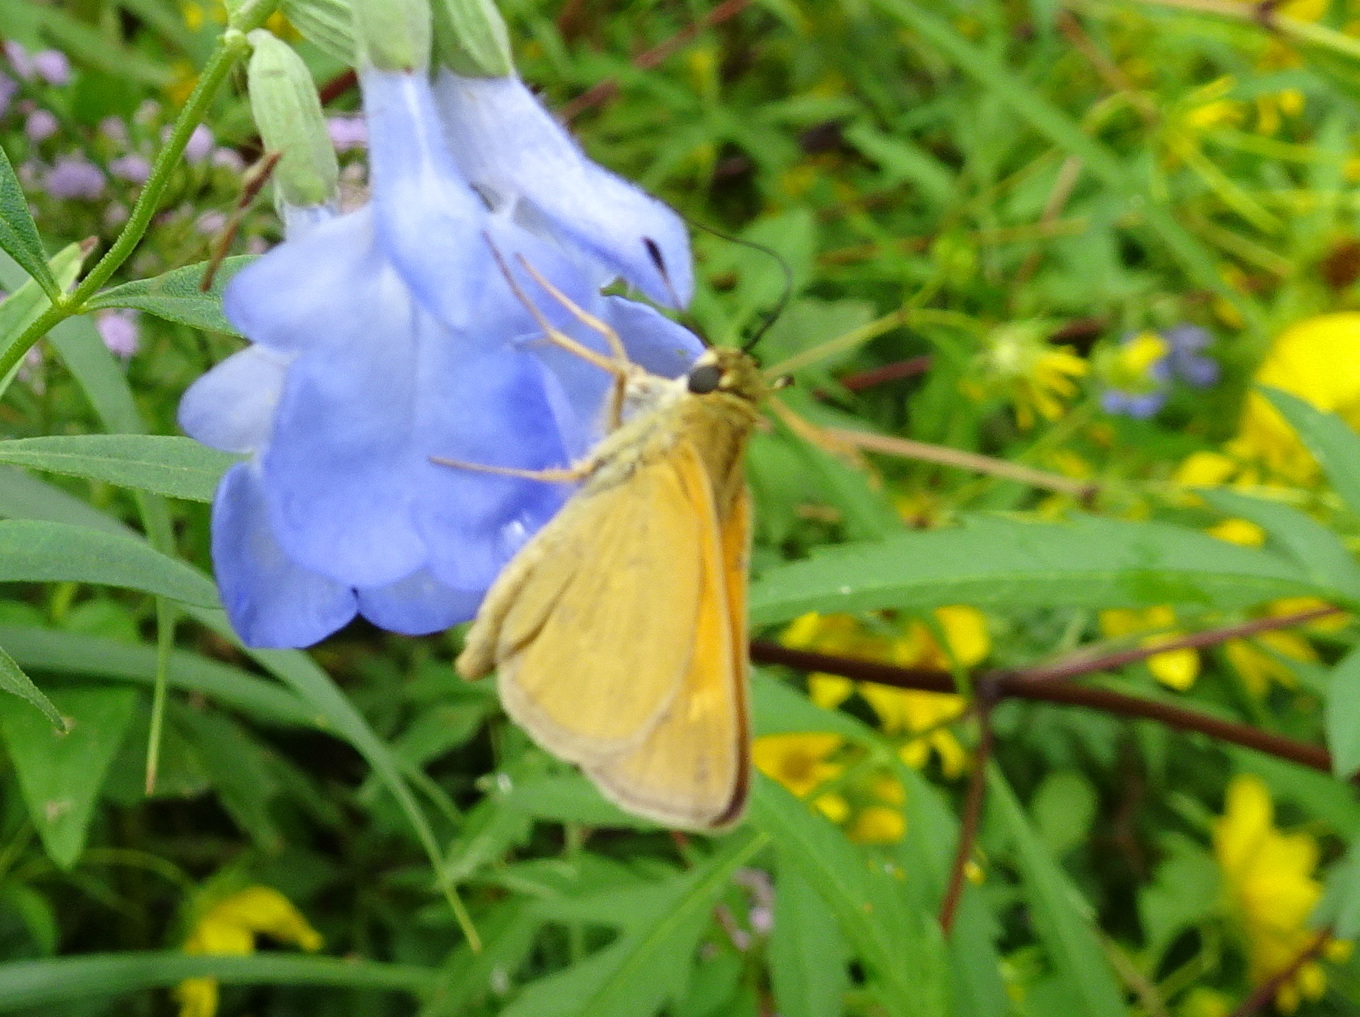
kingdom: Animalia
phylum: Arthropoda
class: Insecta
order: Lepidoptera
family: Hesperiidae
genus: Polites
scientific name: Polites themistocles
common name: Tawny-edged skipper
